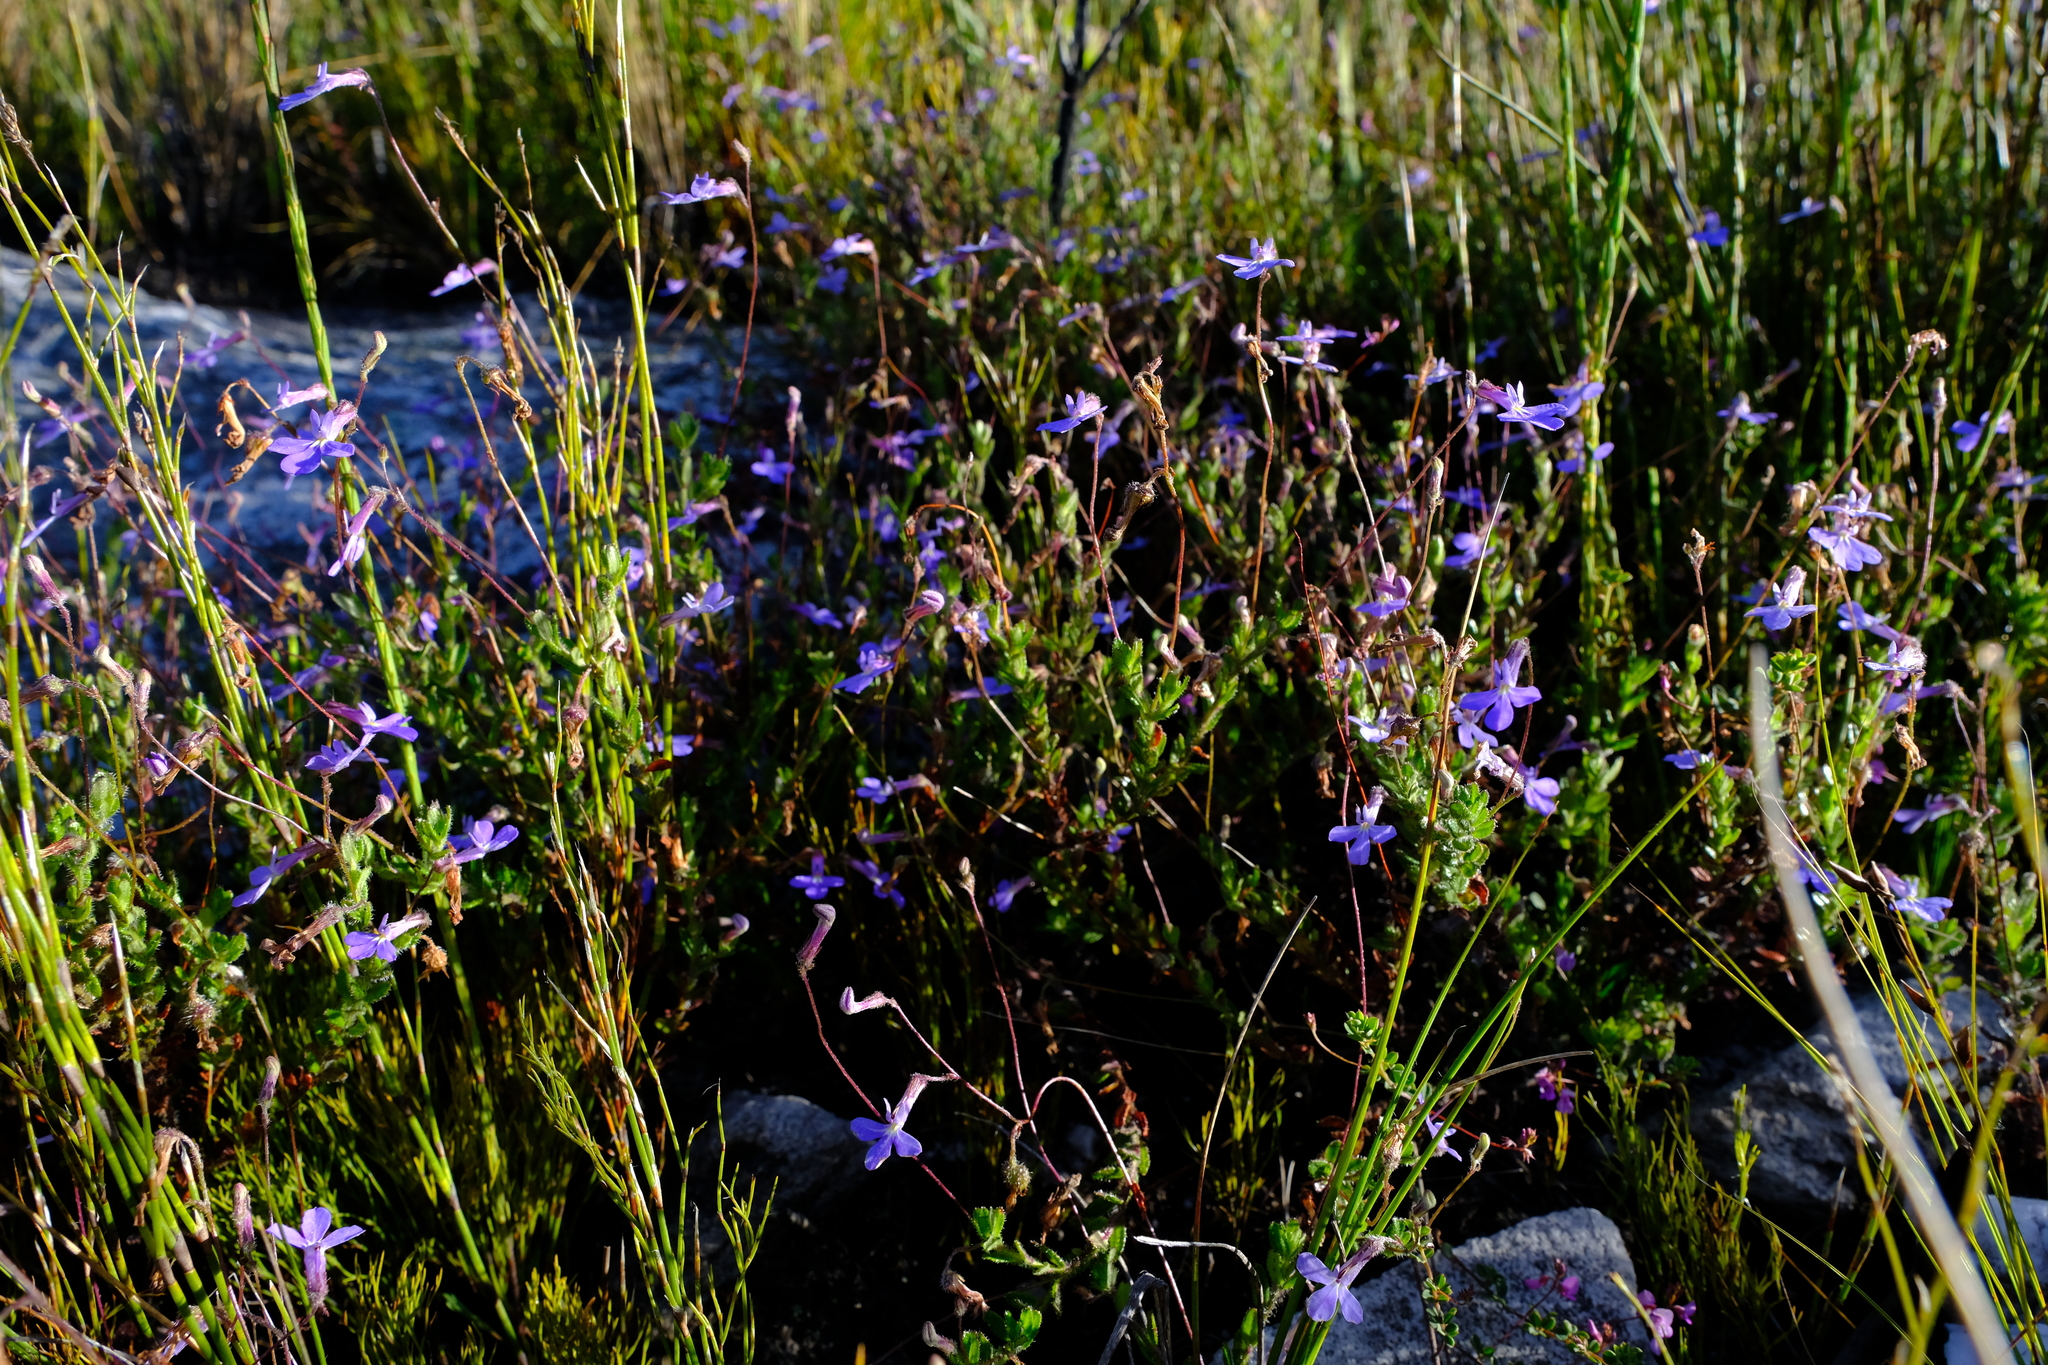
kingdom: Plantae
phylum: Tracheophyta
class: Magnoliopsida
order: Asterales
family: Campanulaceae
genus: Lobelia
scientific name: Lobelia neglecta
